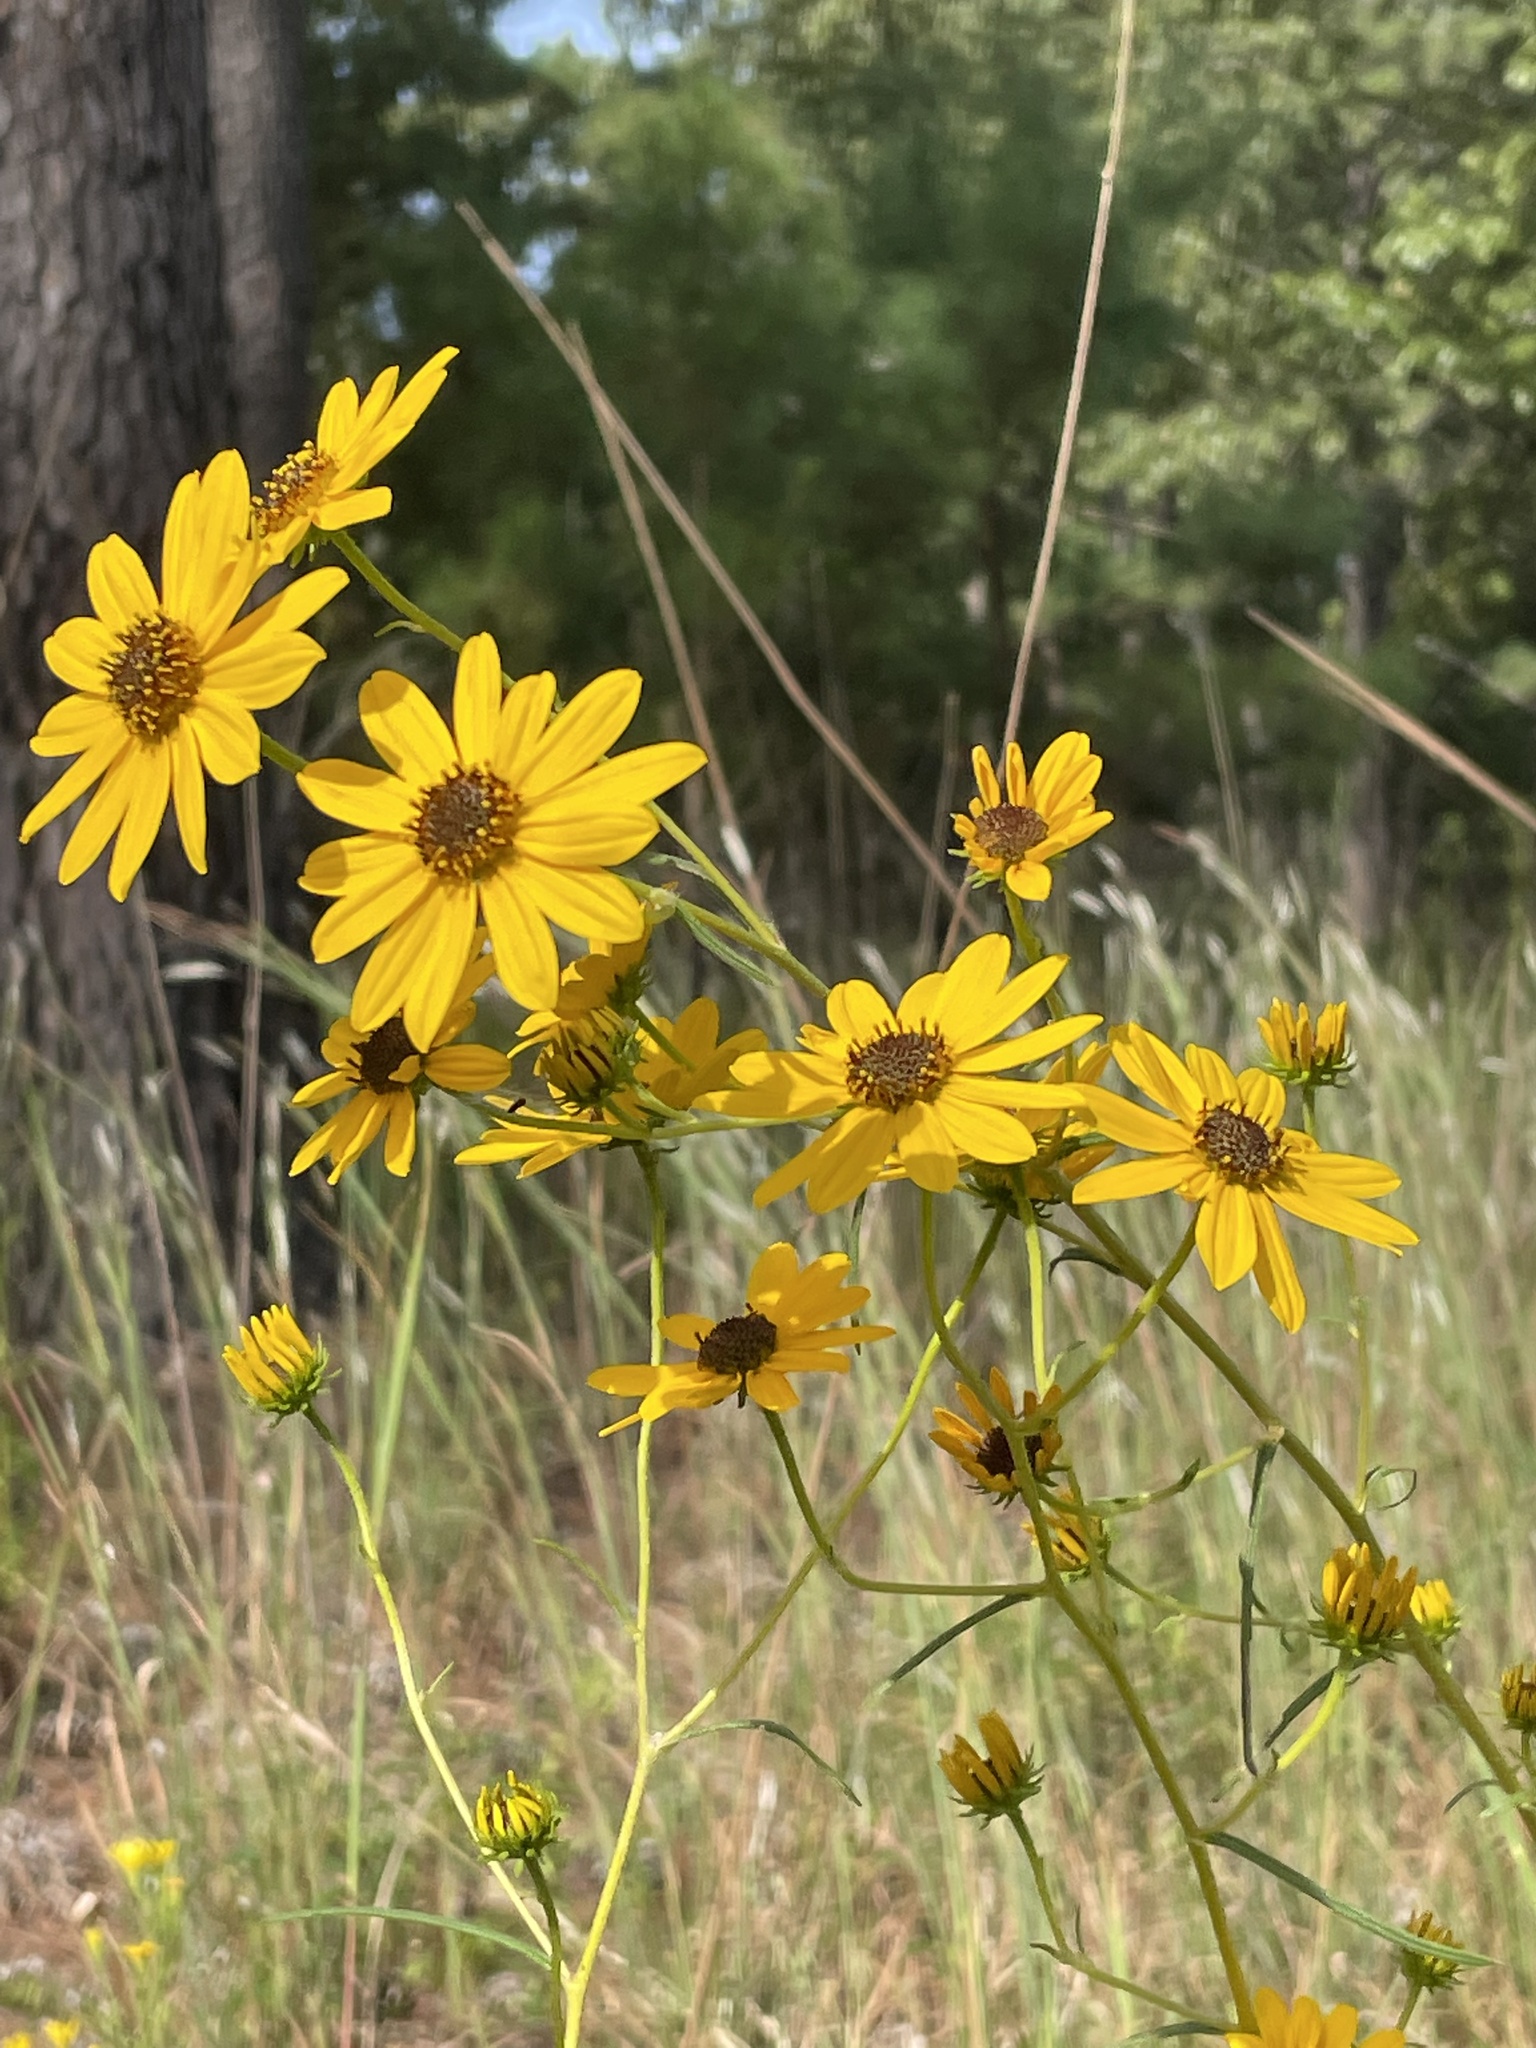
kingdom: Plantae
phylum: Tracheophyta
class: Magnoliopsida
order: Asterales
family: Asteraceae
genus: Helianthus
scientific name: Helianthus angustifolius
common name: Swamp sunflower
